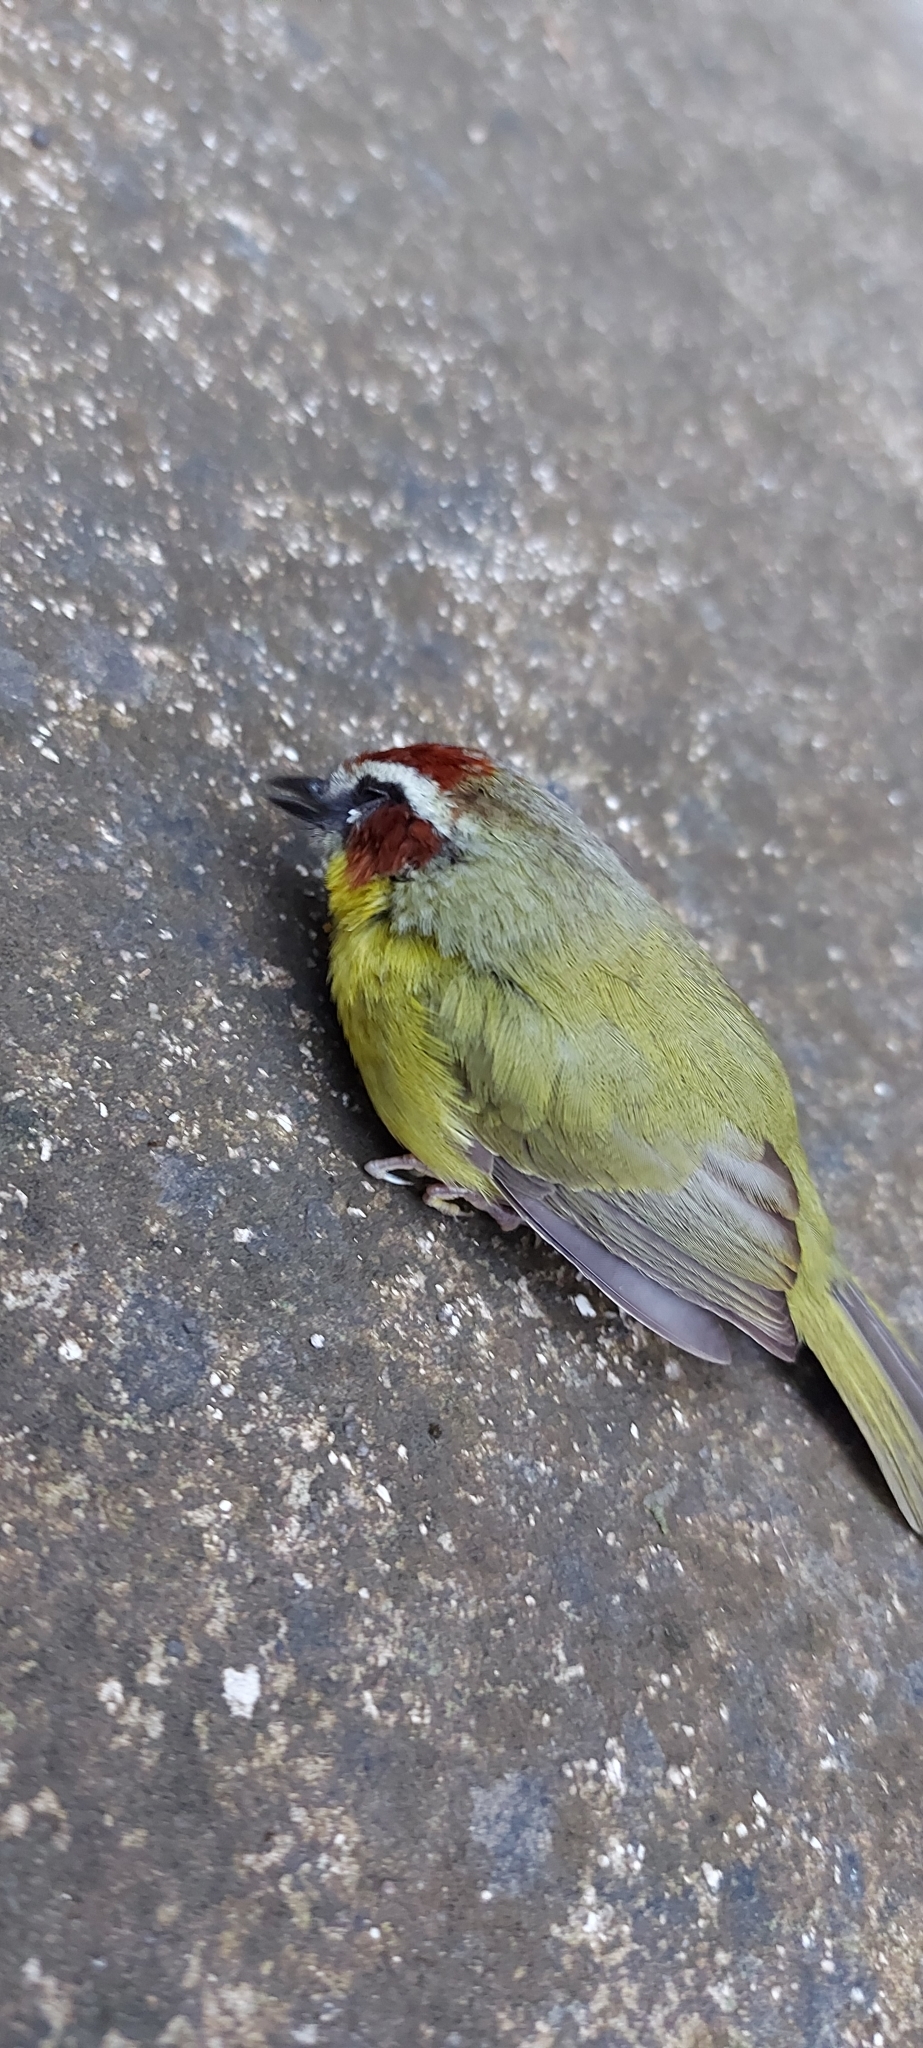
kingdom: Animalia
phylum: Chordata
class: Aves
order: Passeriformes
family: Parulidae
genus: Basileuterus
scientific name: Basileuterus rufifrons
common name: Rufous-capped warbler
